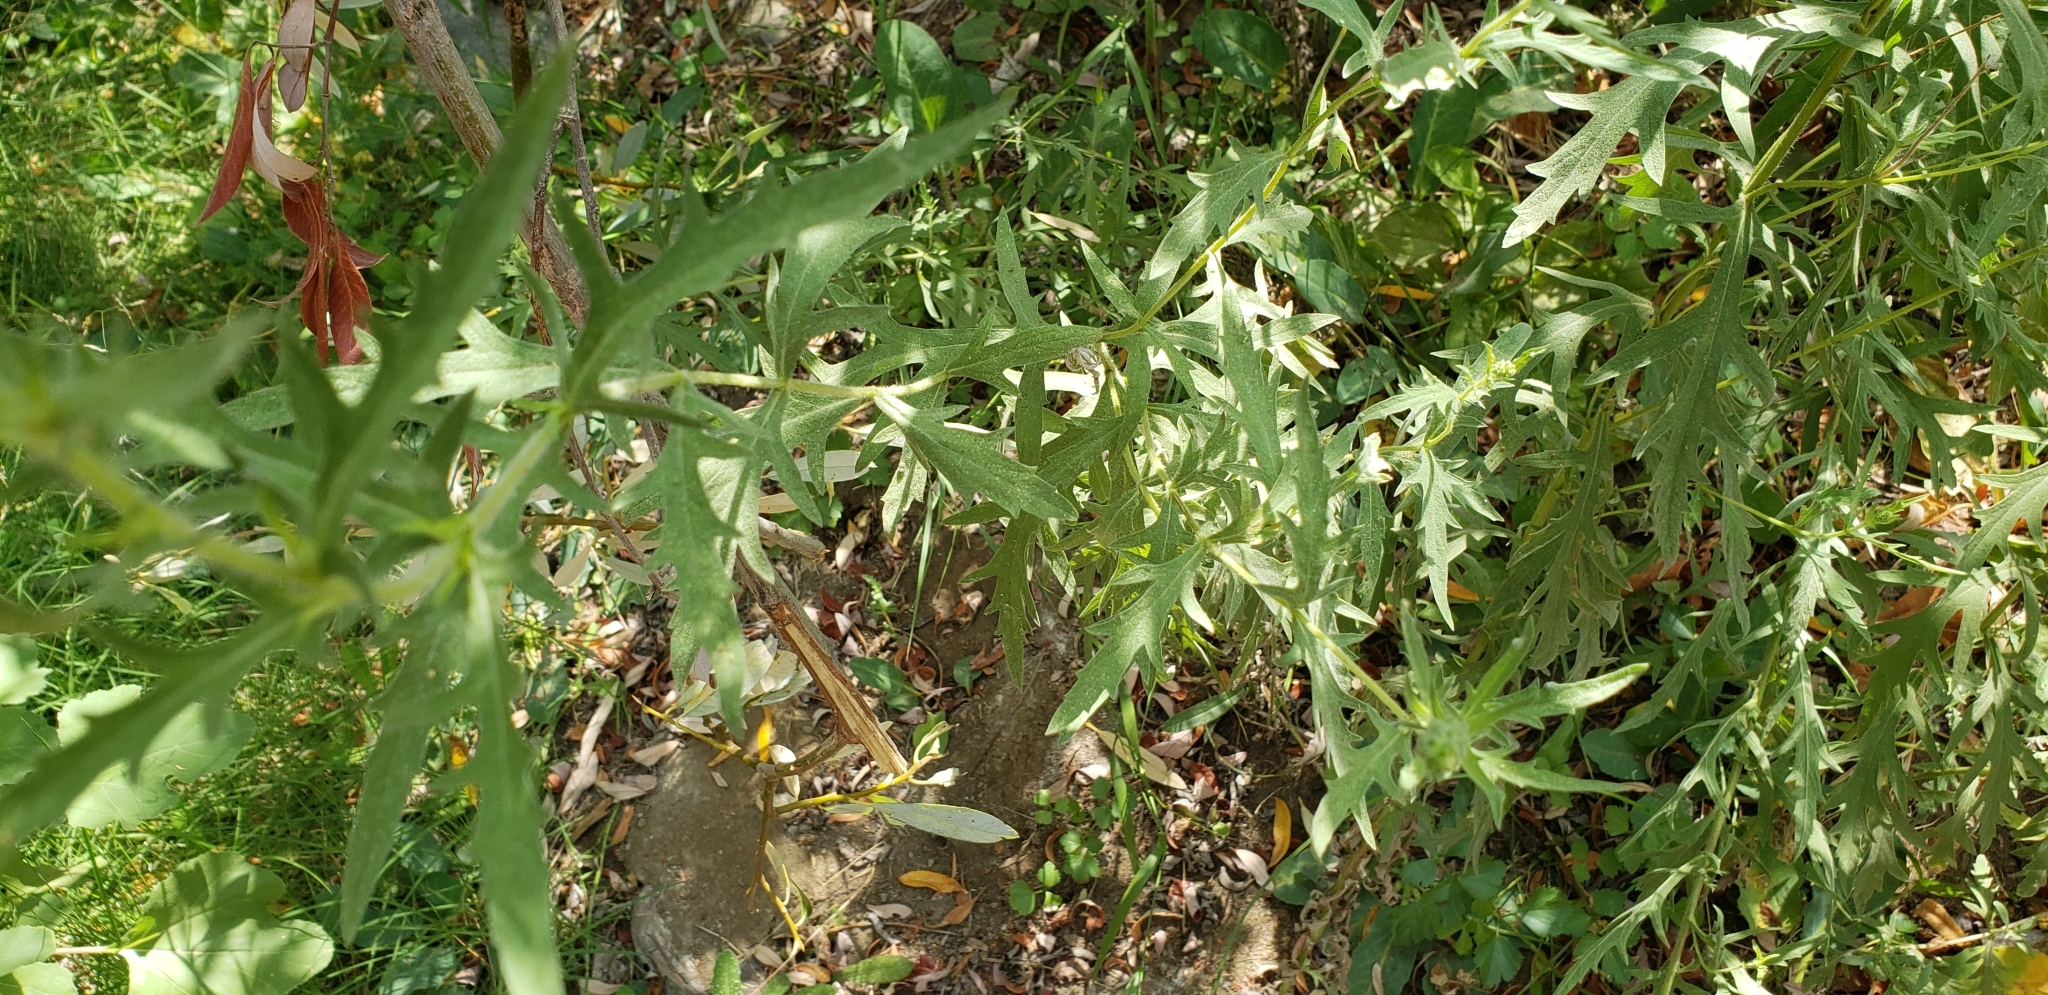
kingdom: Plantae
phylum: Tracheophyta
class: Magnoliopsida
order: Asterales
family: Asteraceae
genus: Ambrosia
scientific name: Ambrosia psilostachya
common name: Perennial ragweed
